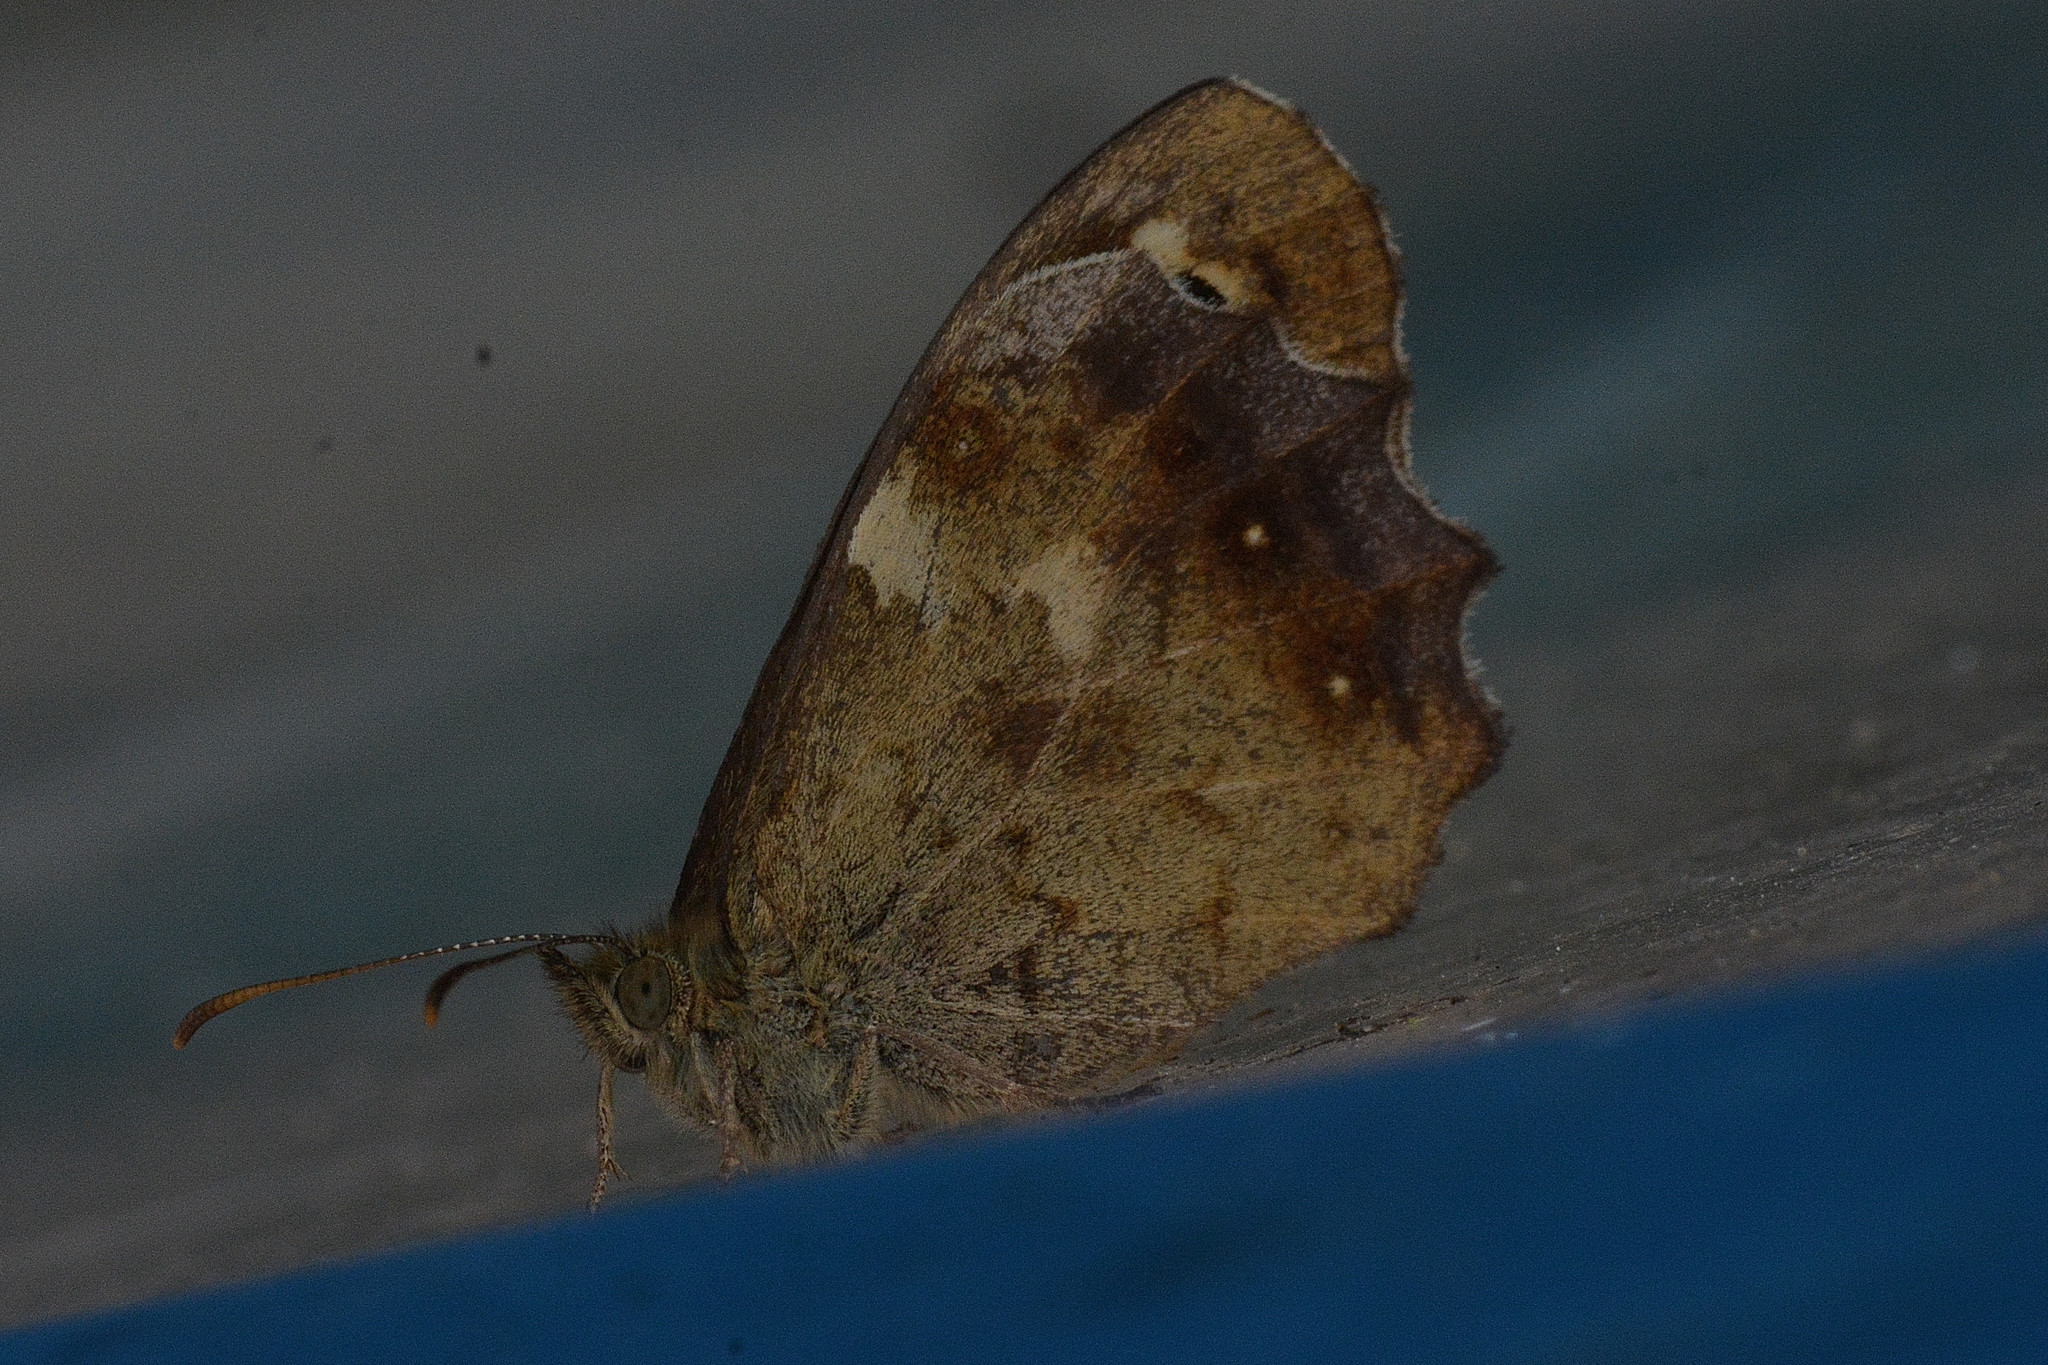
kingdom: Animalia
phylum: Arthropoda
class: Insecta
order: Lepidoptera
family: Nymphalidae
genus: Pararge
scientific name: Pararge aegeria
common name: Speckled wood
